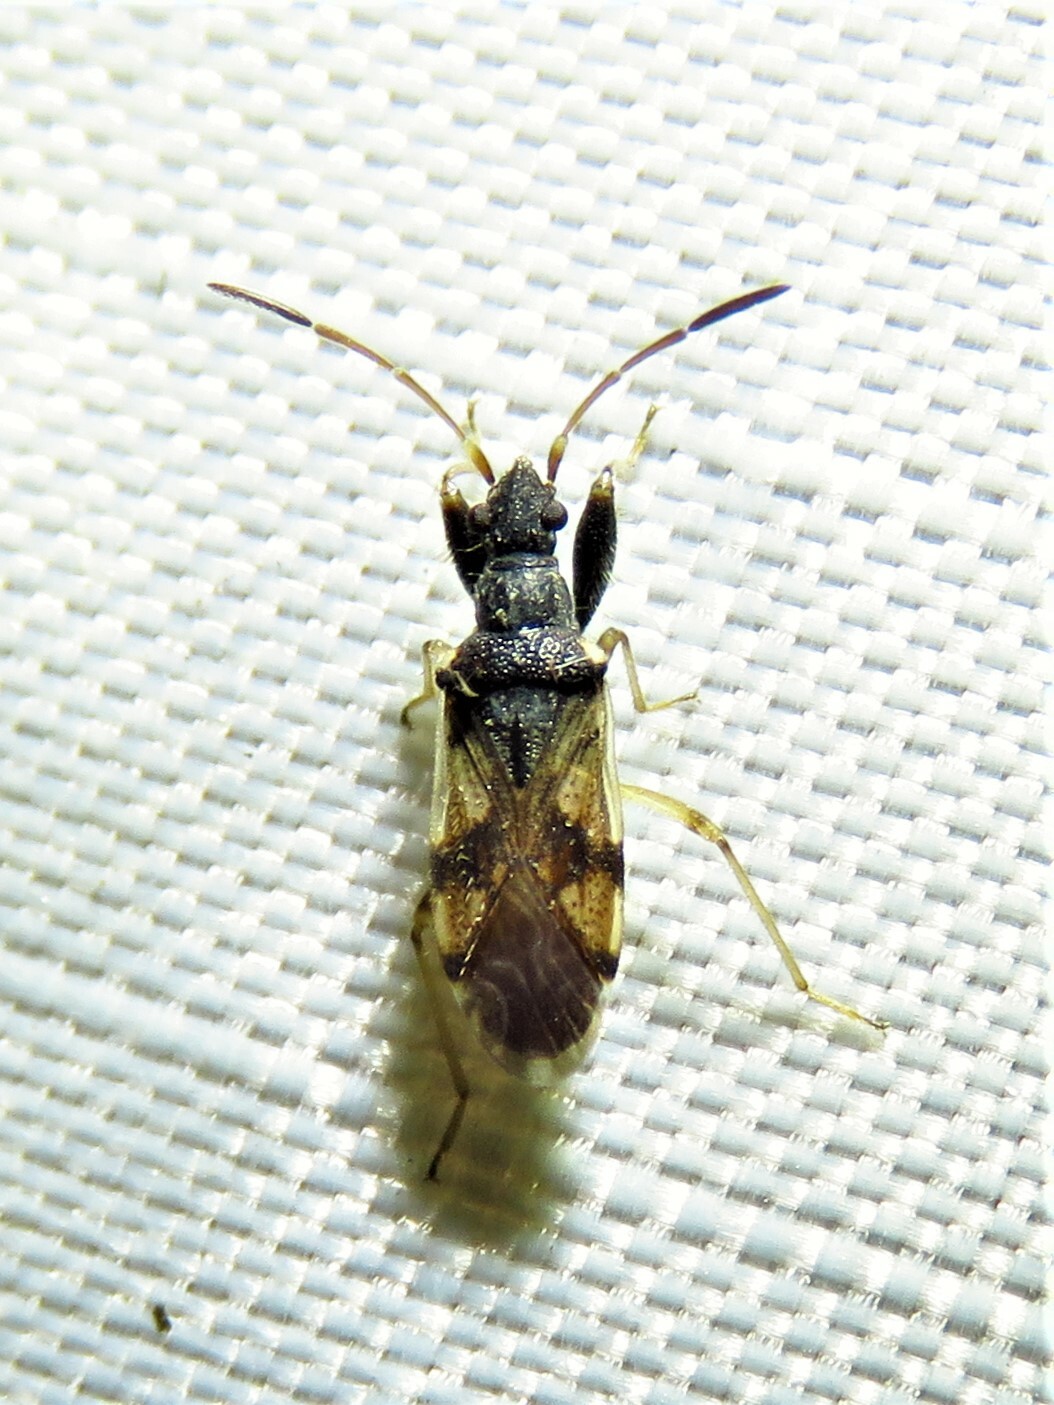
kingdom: Animalia
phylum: Arthropoda
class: Insecta
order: Hemiptera
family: Rhyparochromidae
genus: Neopamera
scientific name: Neopamera bilobata
